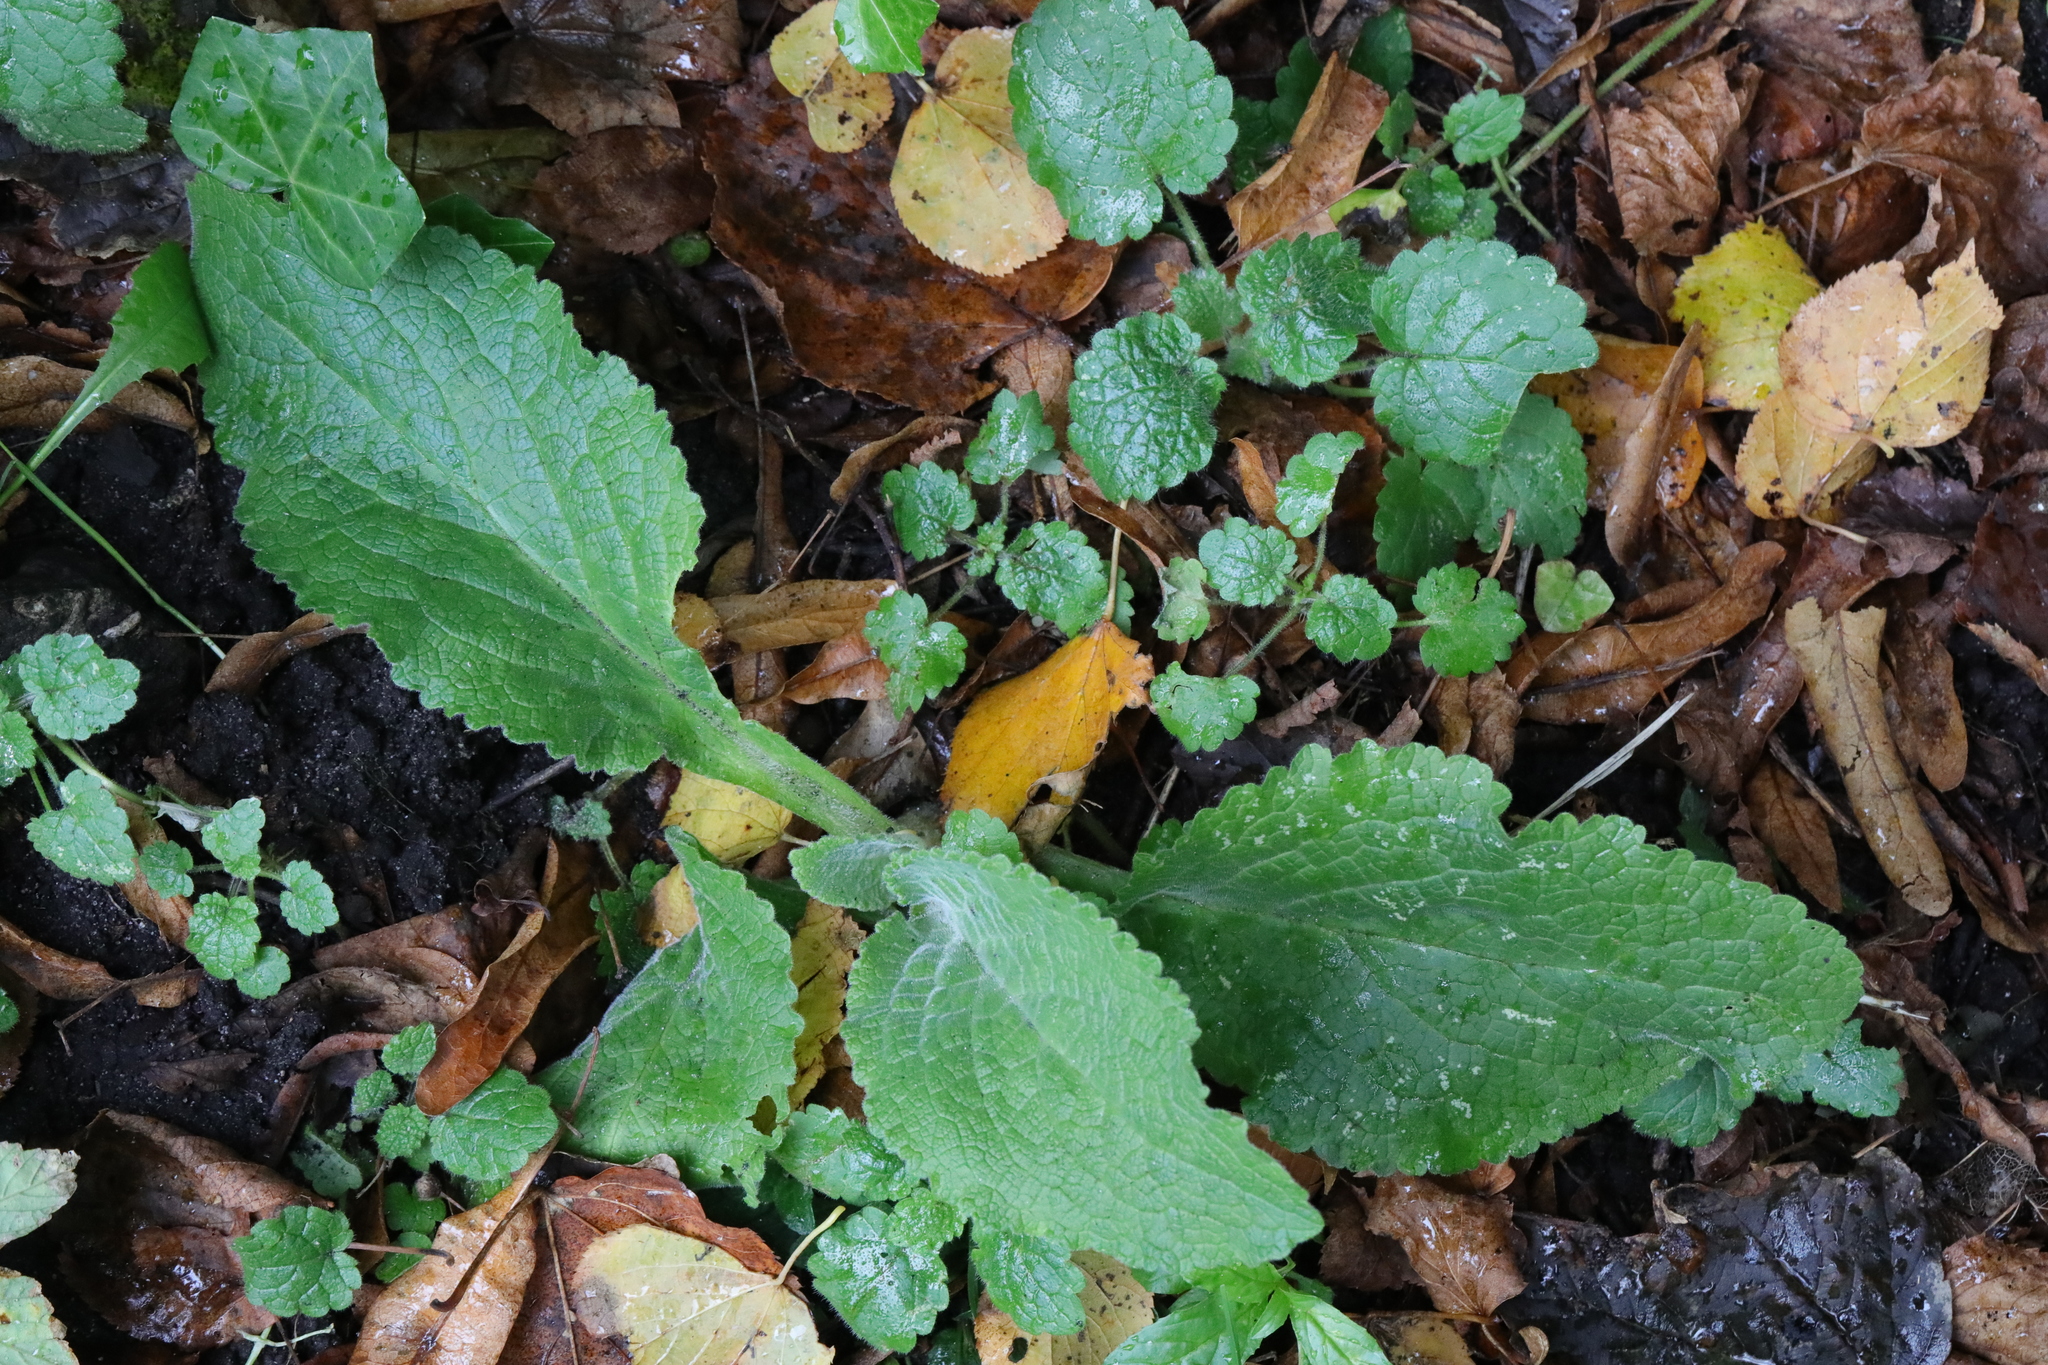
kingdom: Plantae
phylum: Tracheophyta
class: Magnoliopsida
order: Lamiales
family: Plantaginaceae
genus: Digitalis
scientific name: Digitalis purpurea
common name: Foxglove
